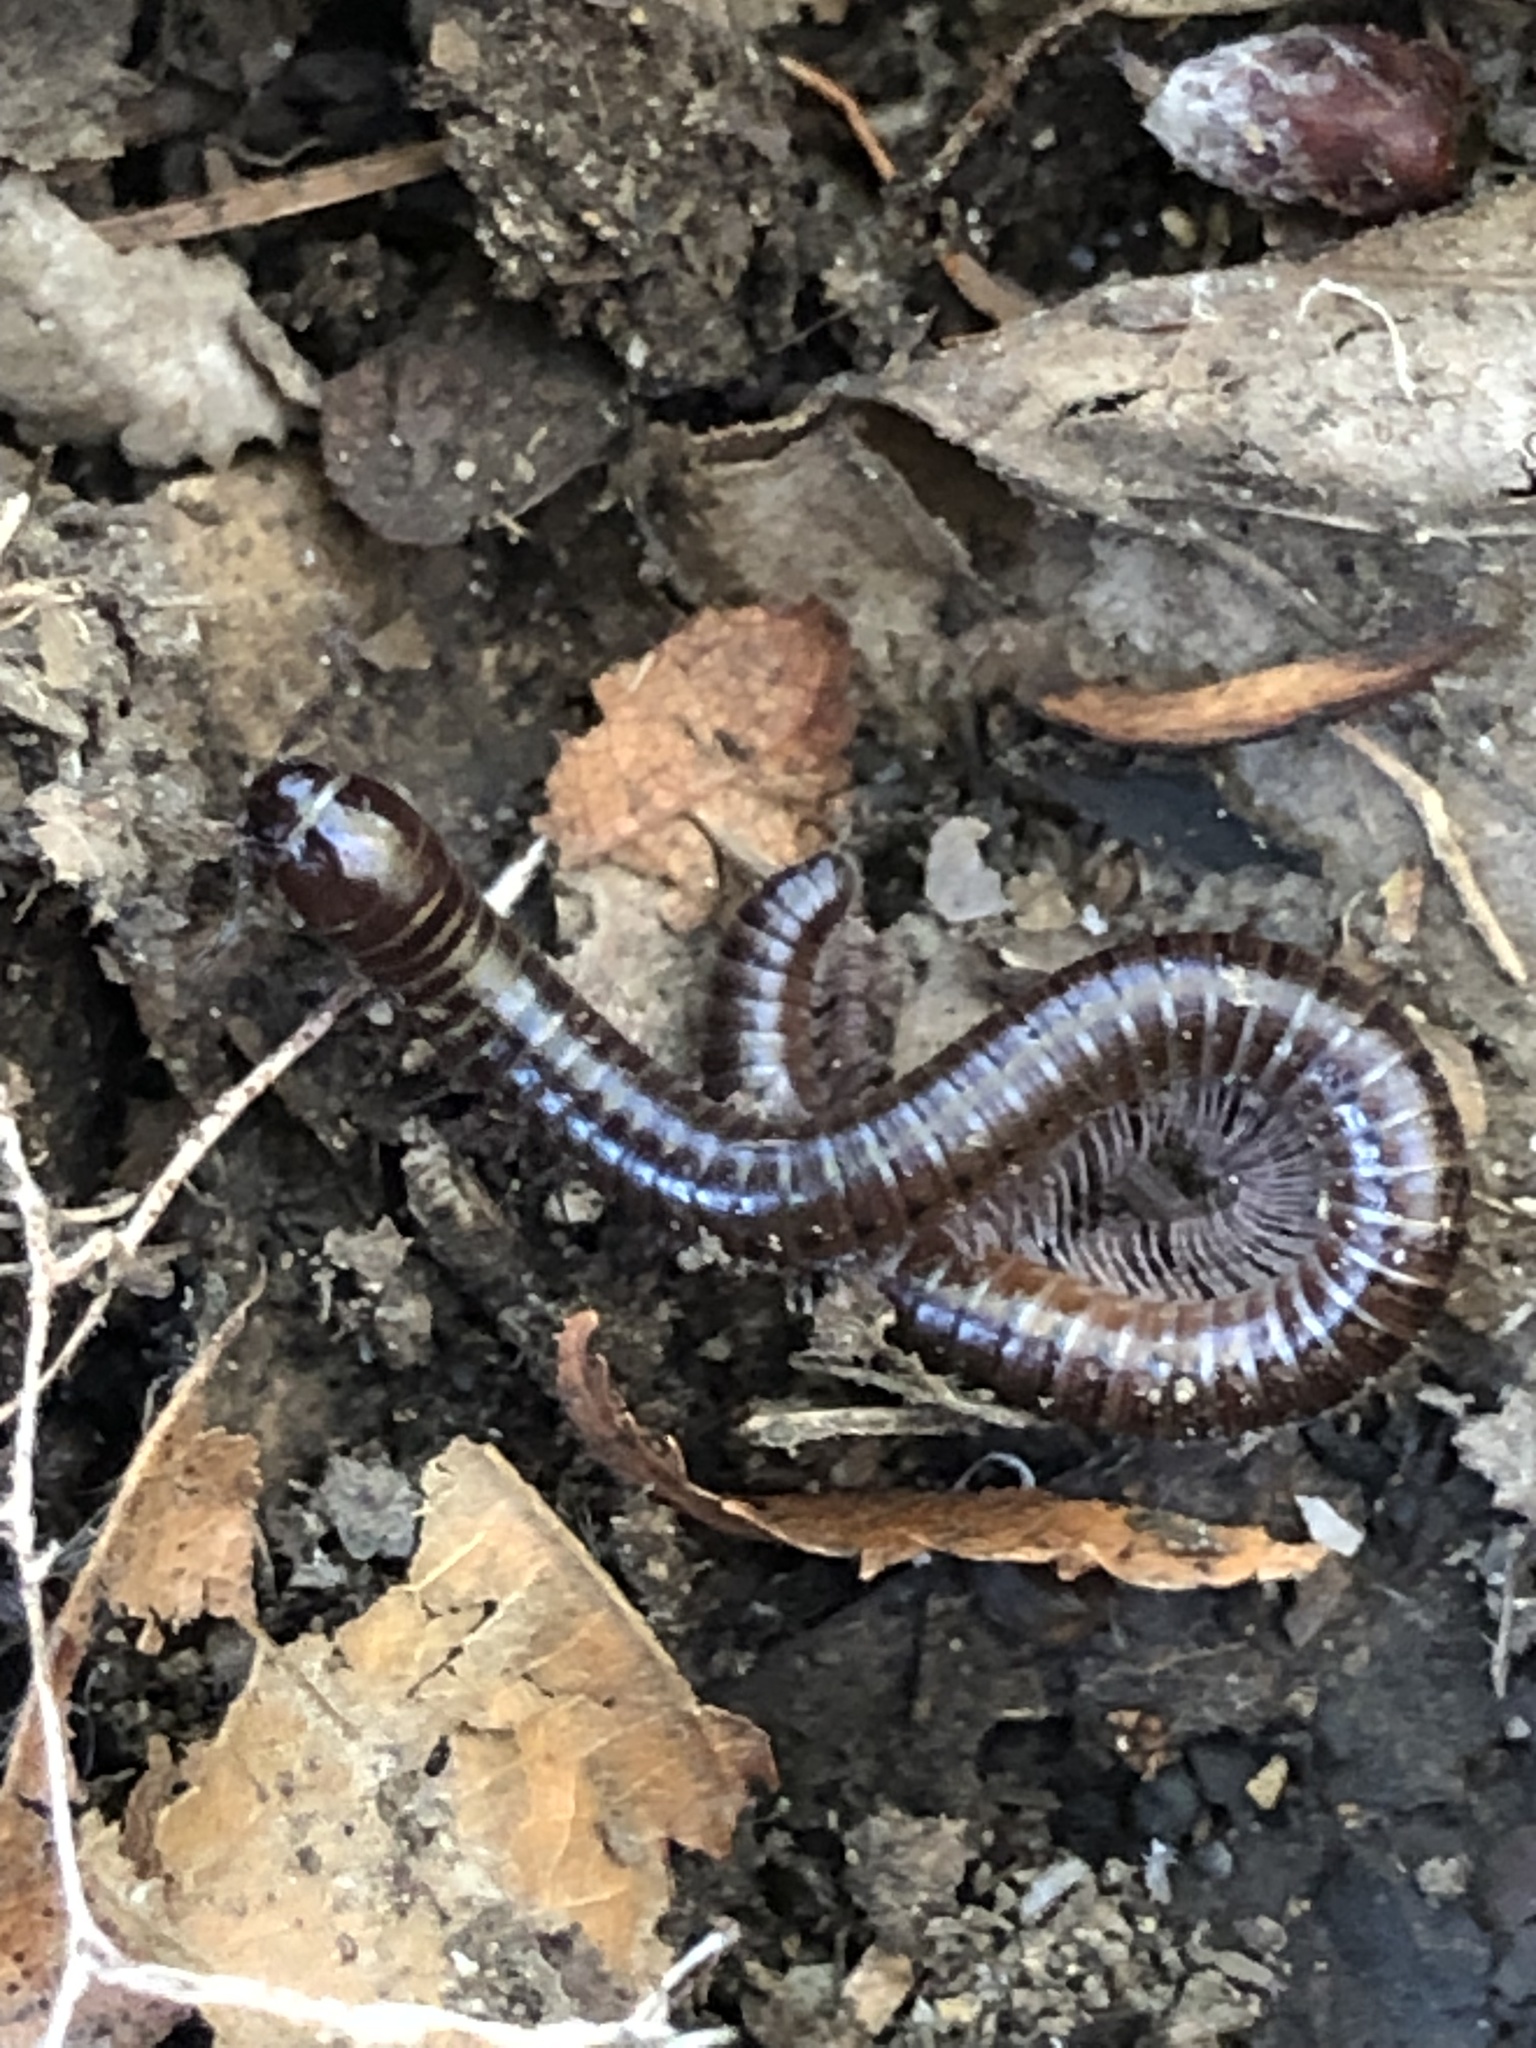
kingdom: Animalia
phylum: Arthropoda
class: Diplopoda
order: Julida
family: Julidae
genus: Ophyiulus
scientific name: Ophyiulus pilosus
